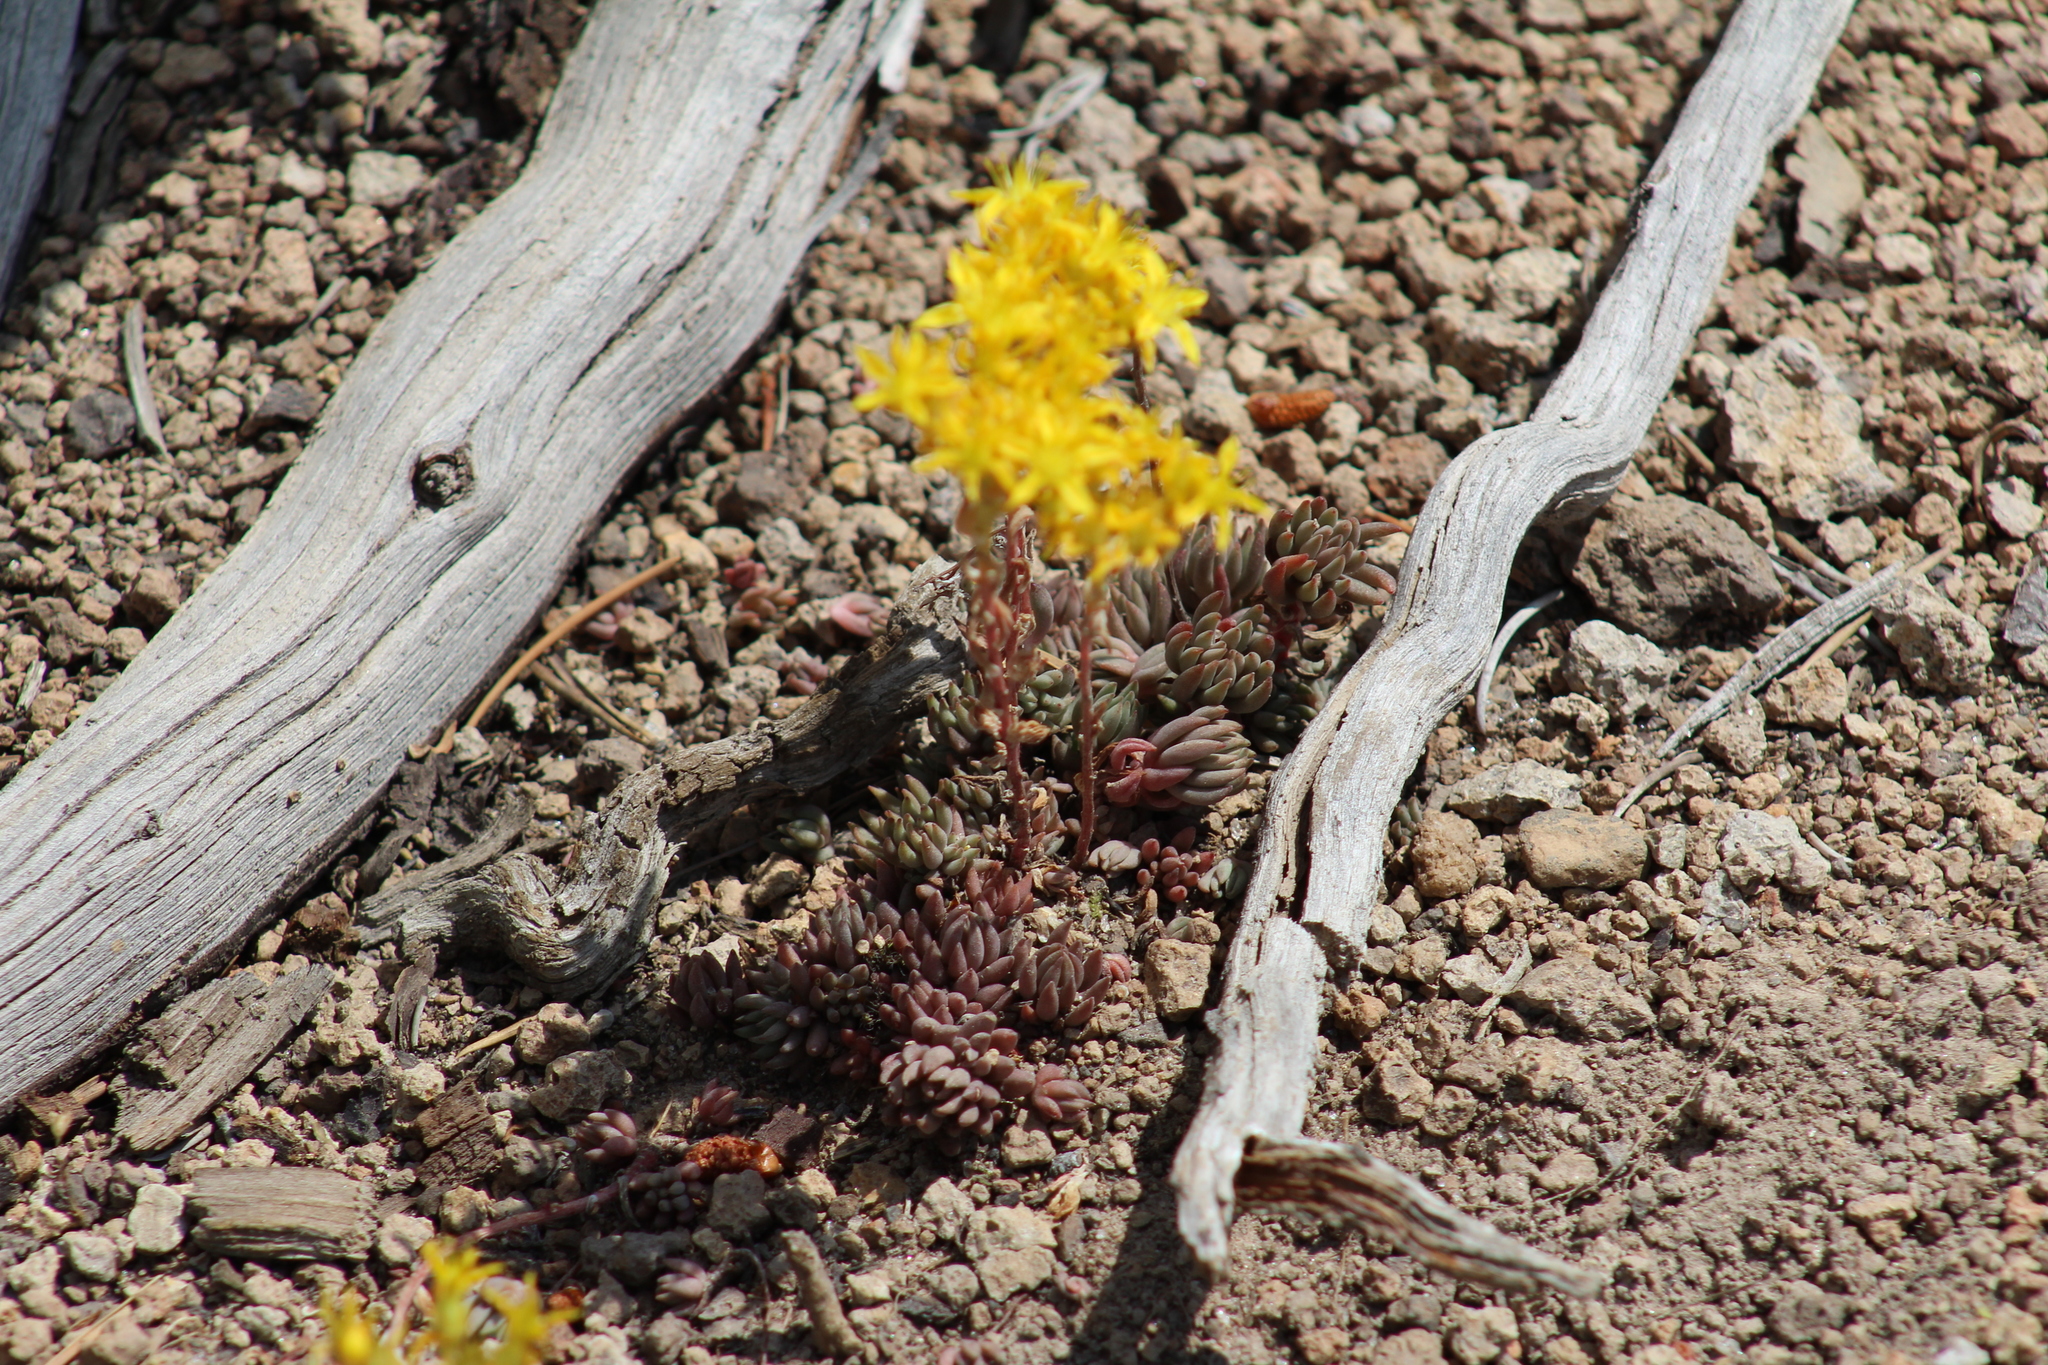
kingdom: Plantae
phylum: Tracheophyta
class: Magnoliopsida
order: Saxifragales
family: Crassulaceae
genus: Sedum
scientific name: Sedum lanceolatum
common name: Common stonecrop
